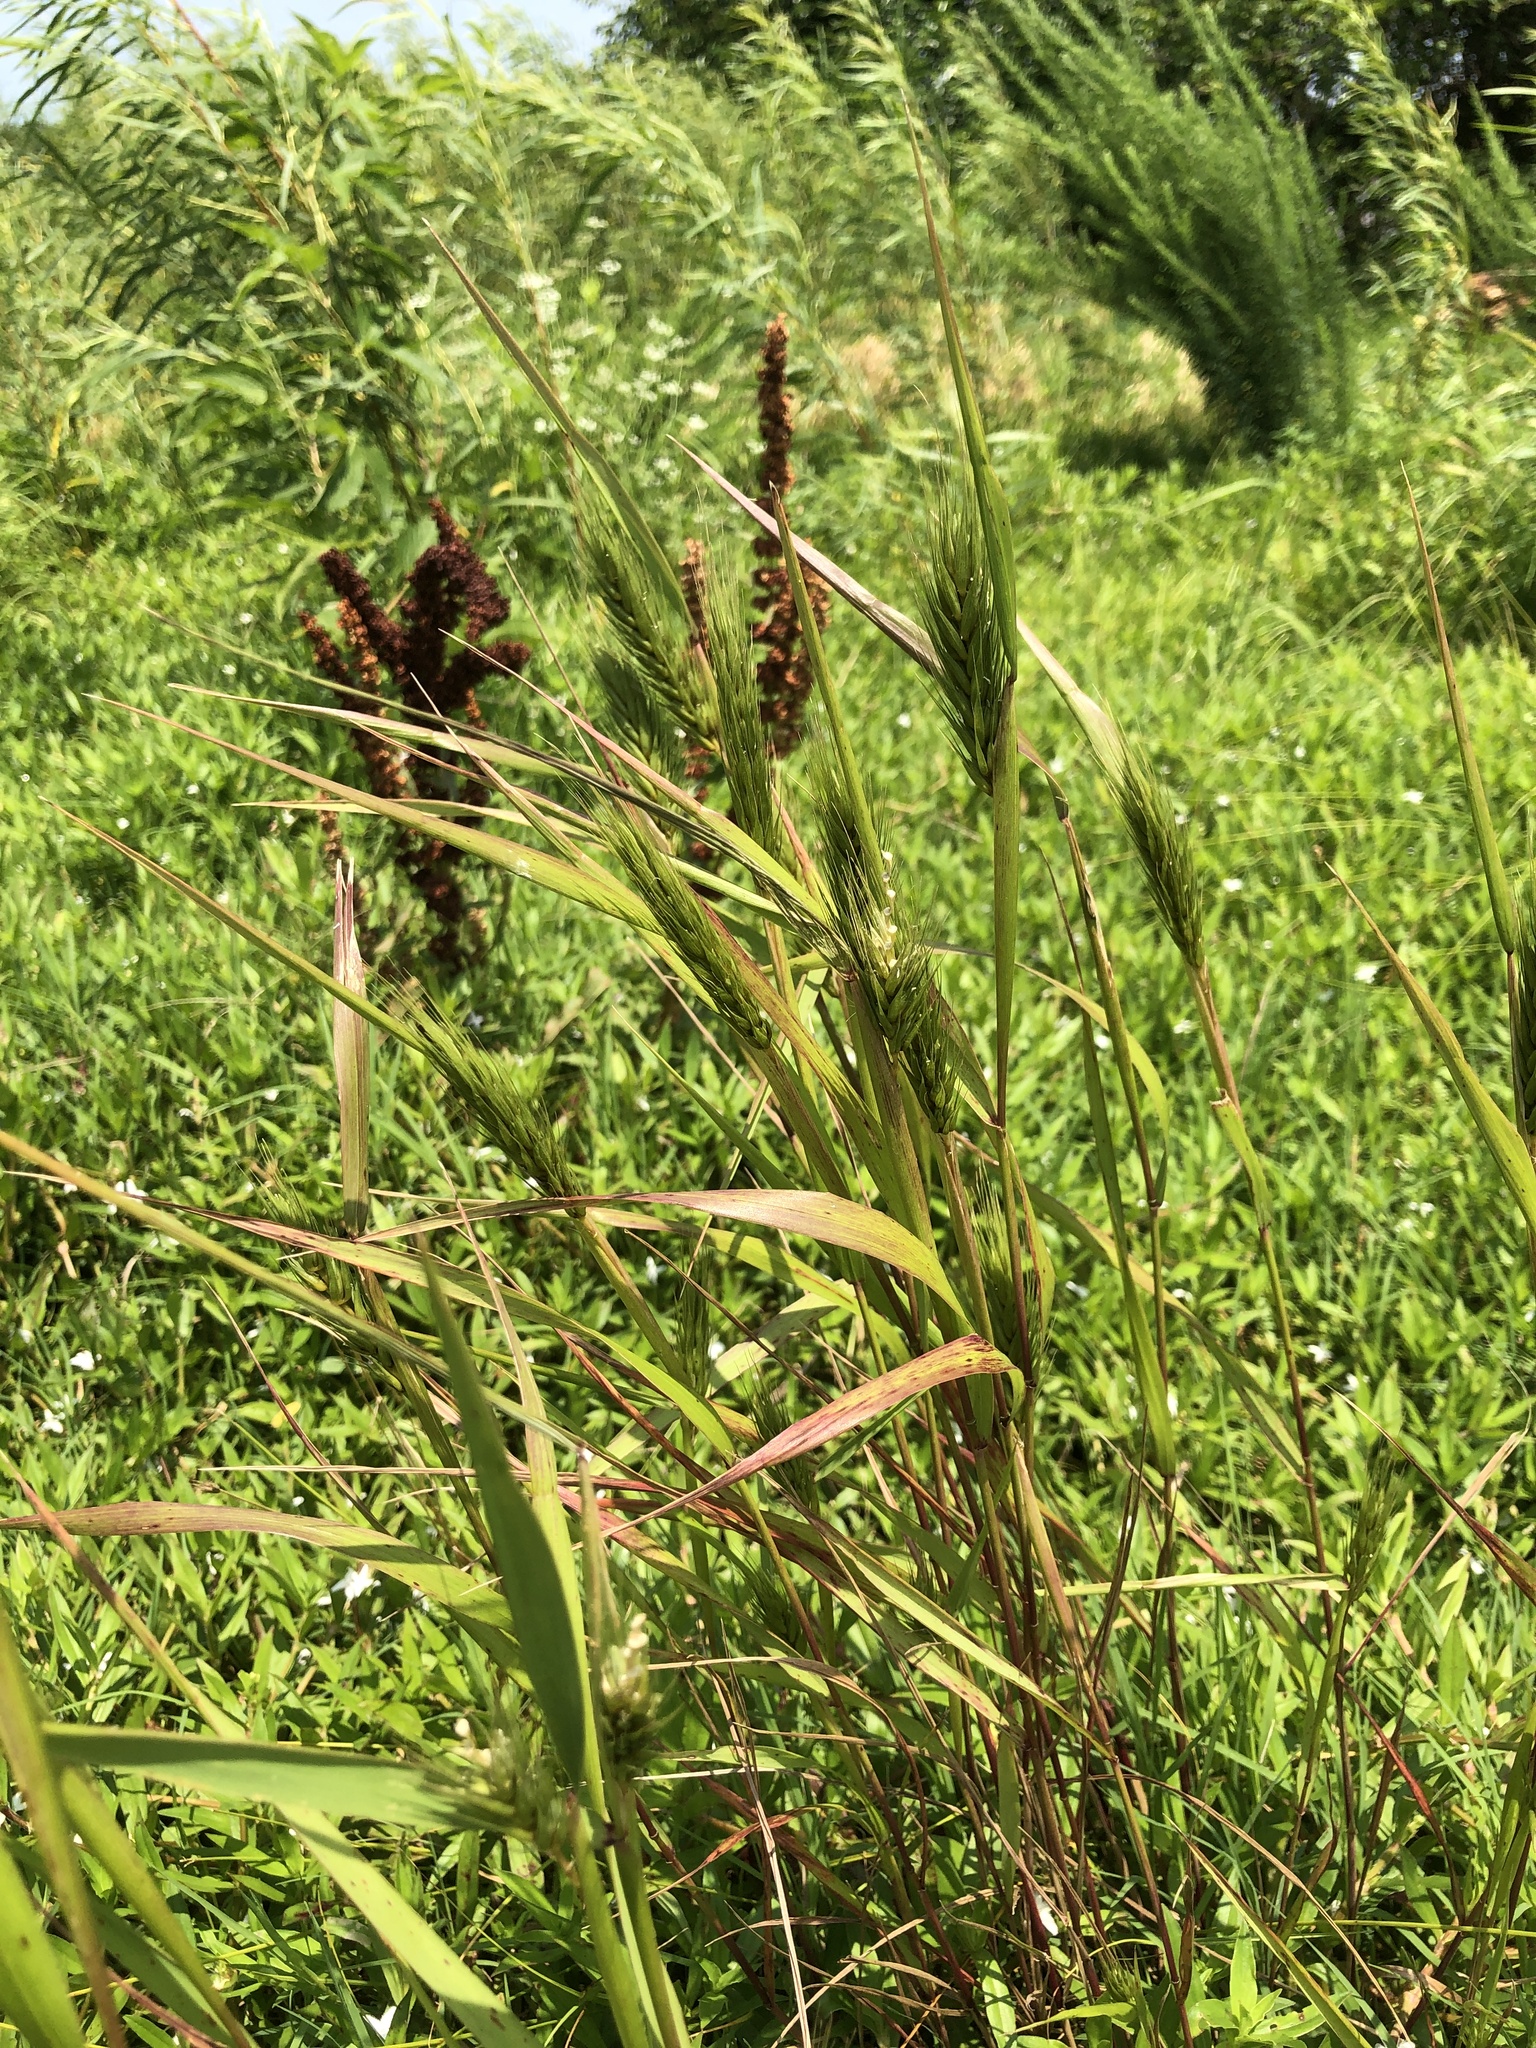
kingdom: Plantae
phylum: Tracheophyta
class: Liliopsida
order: Poales
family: Poaceae
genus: Elymus
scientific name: Elymus virginicus
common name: Common eastern wildrye
